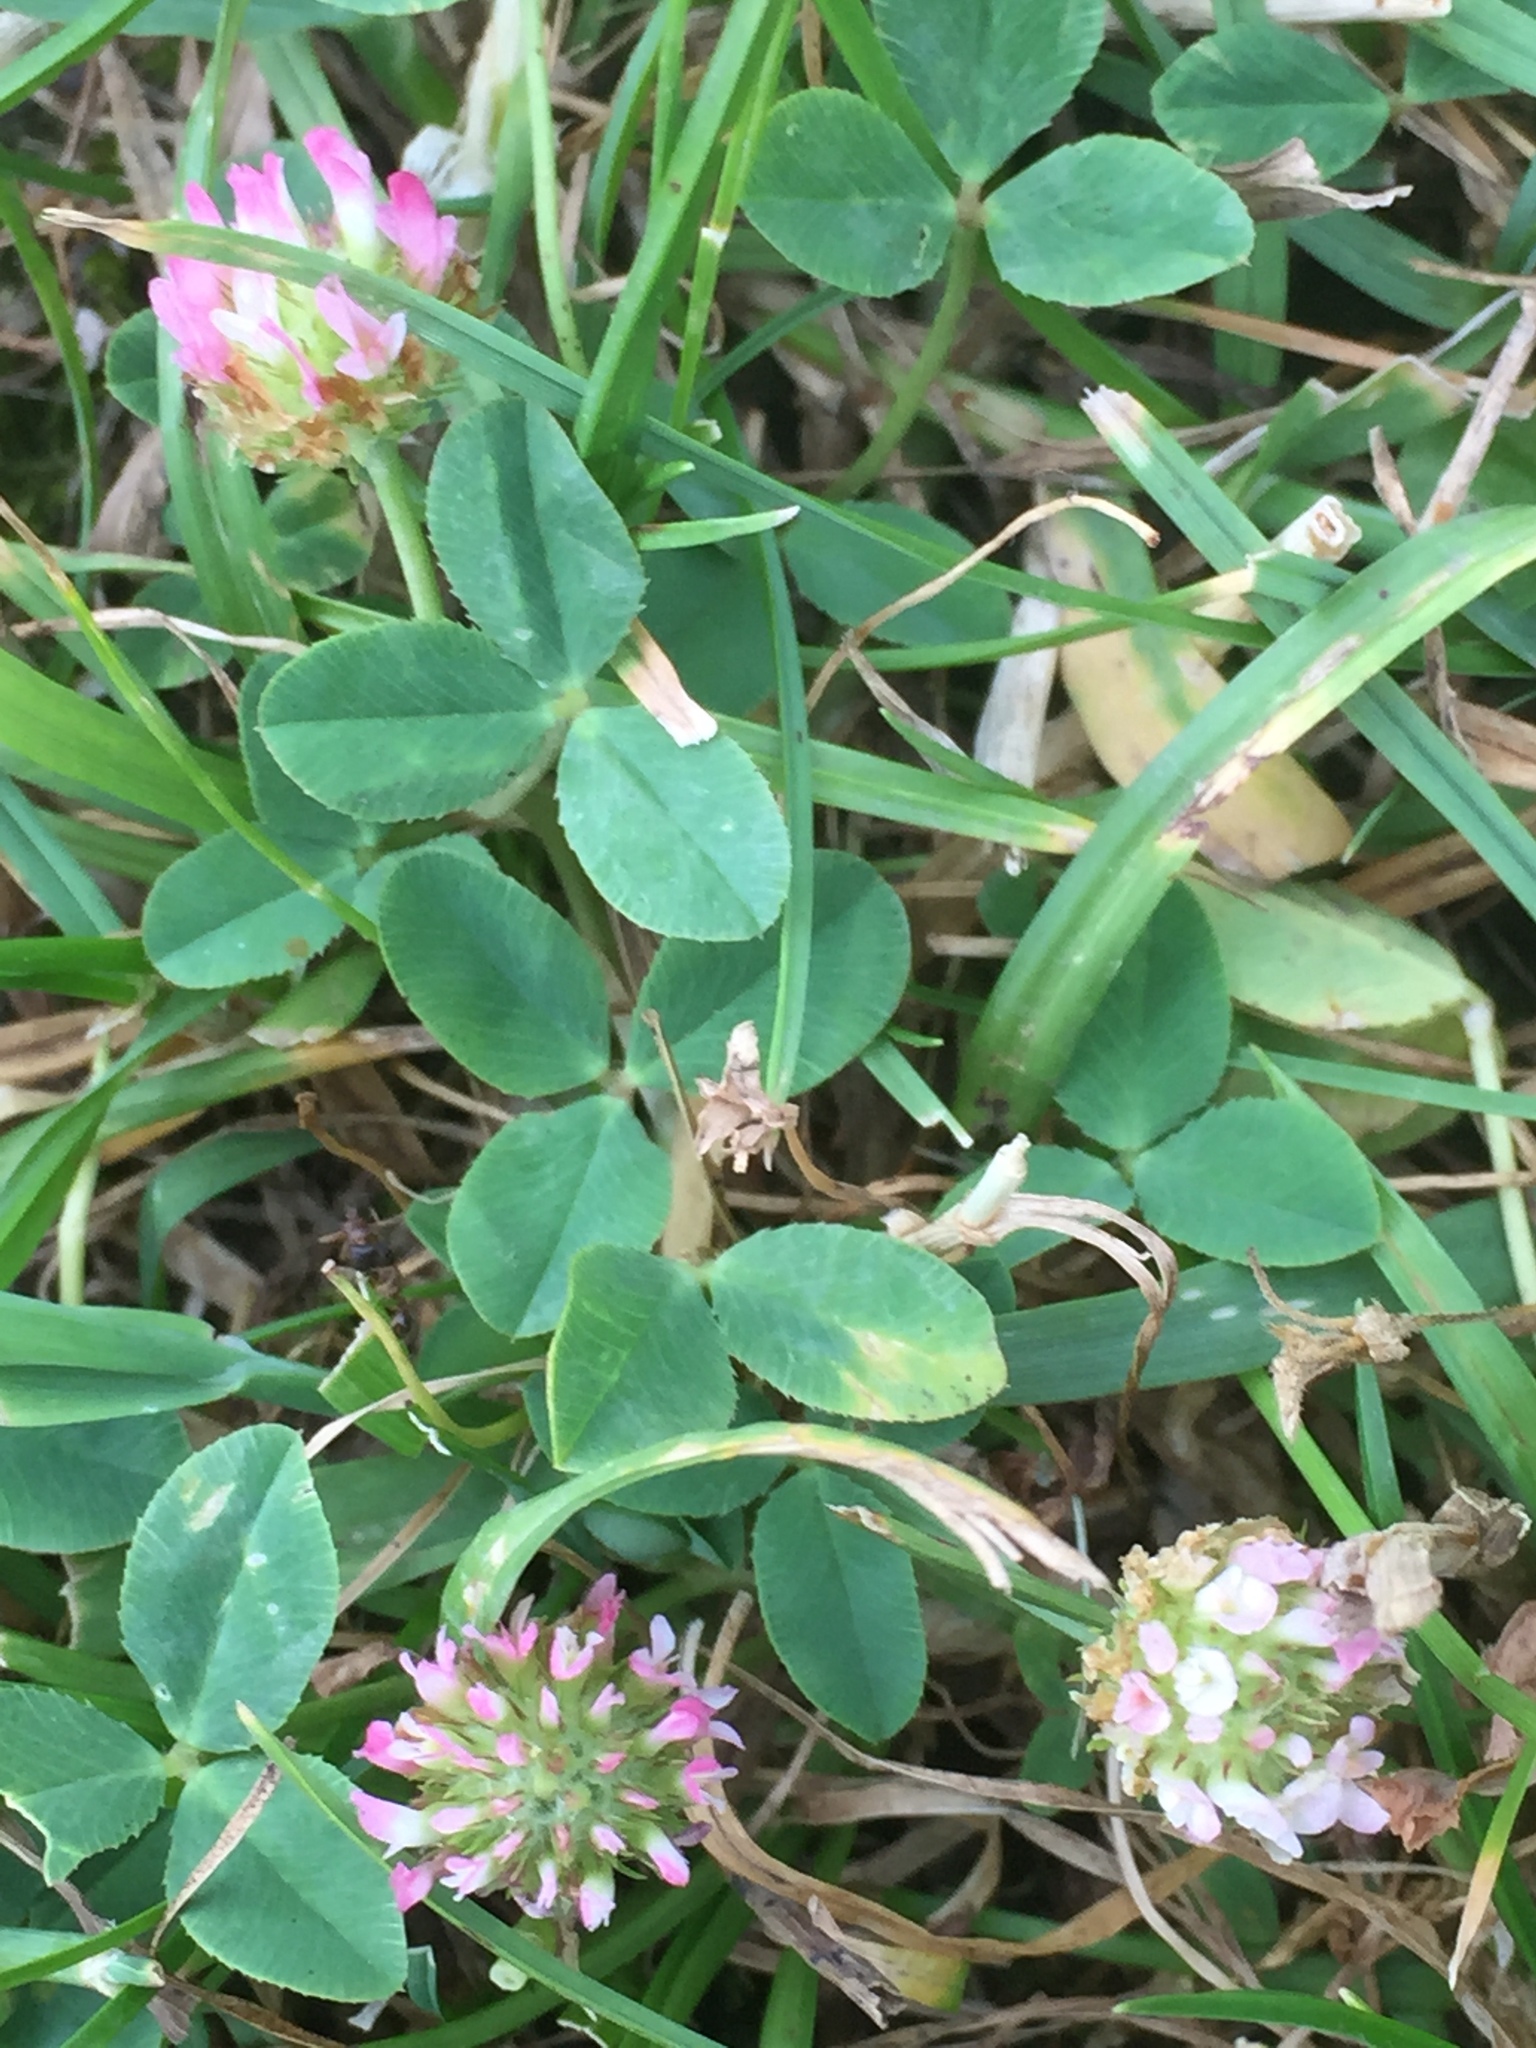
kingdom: Plantae
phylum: Tracheophyta
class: Magnoliopsida
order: Fabales
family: Fabaceae
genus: Trifolium
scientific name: Trifolium fragiferum
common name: Strawberry clover
